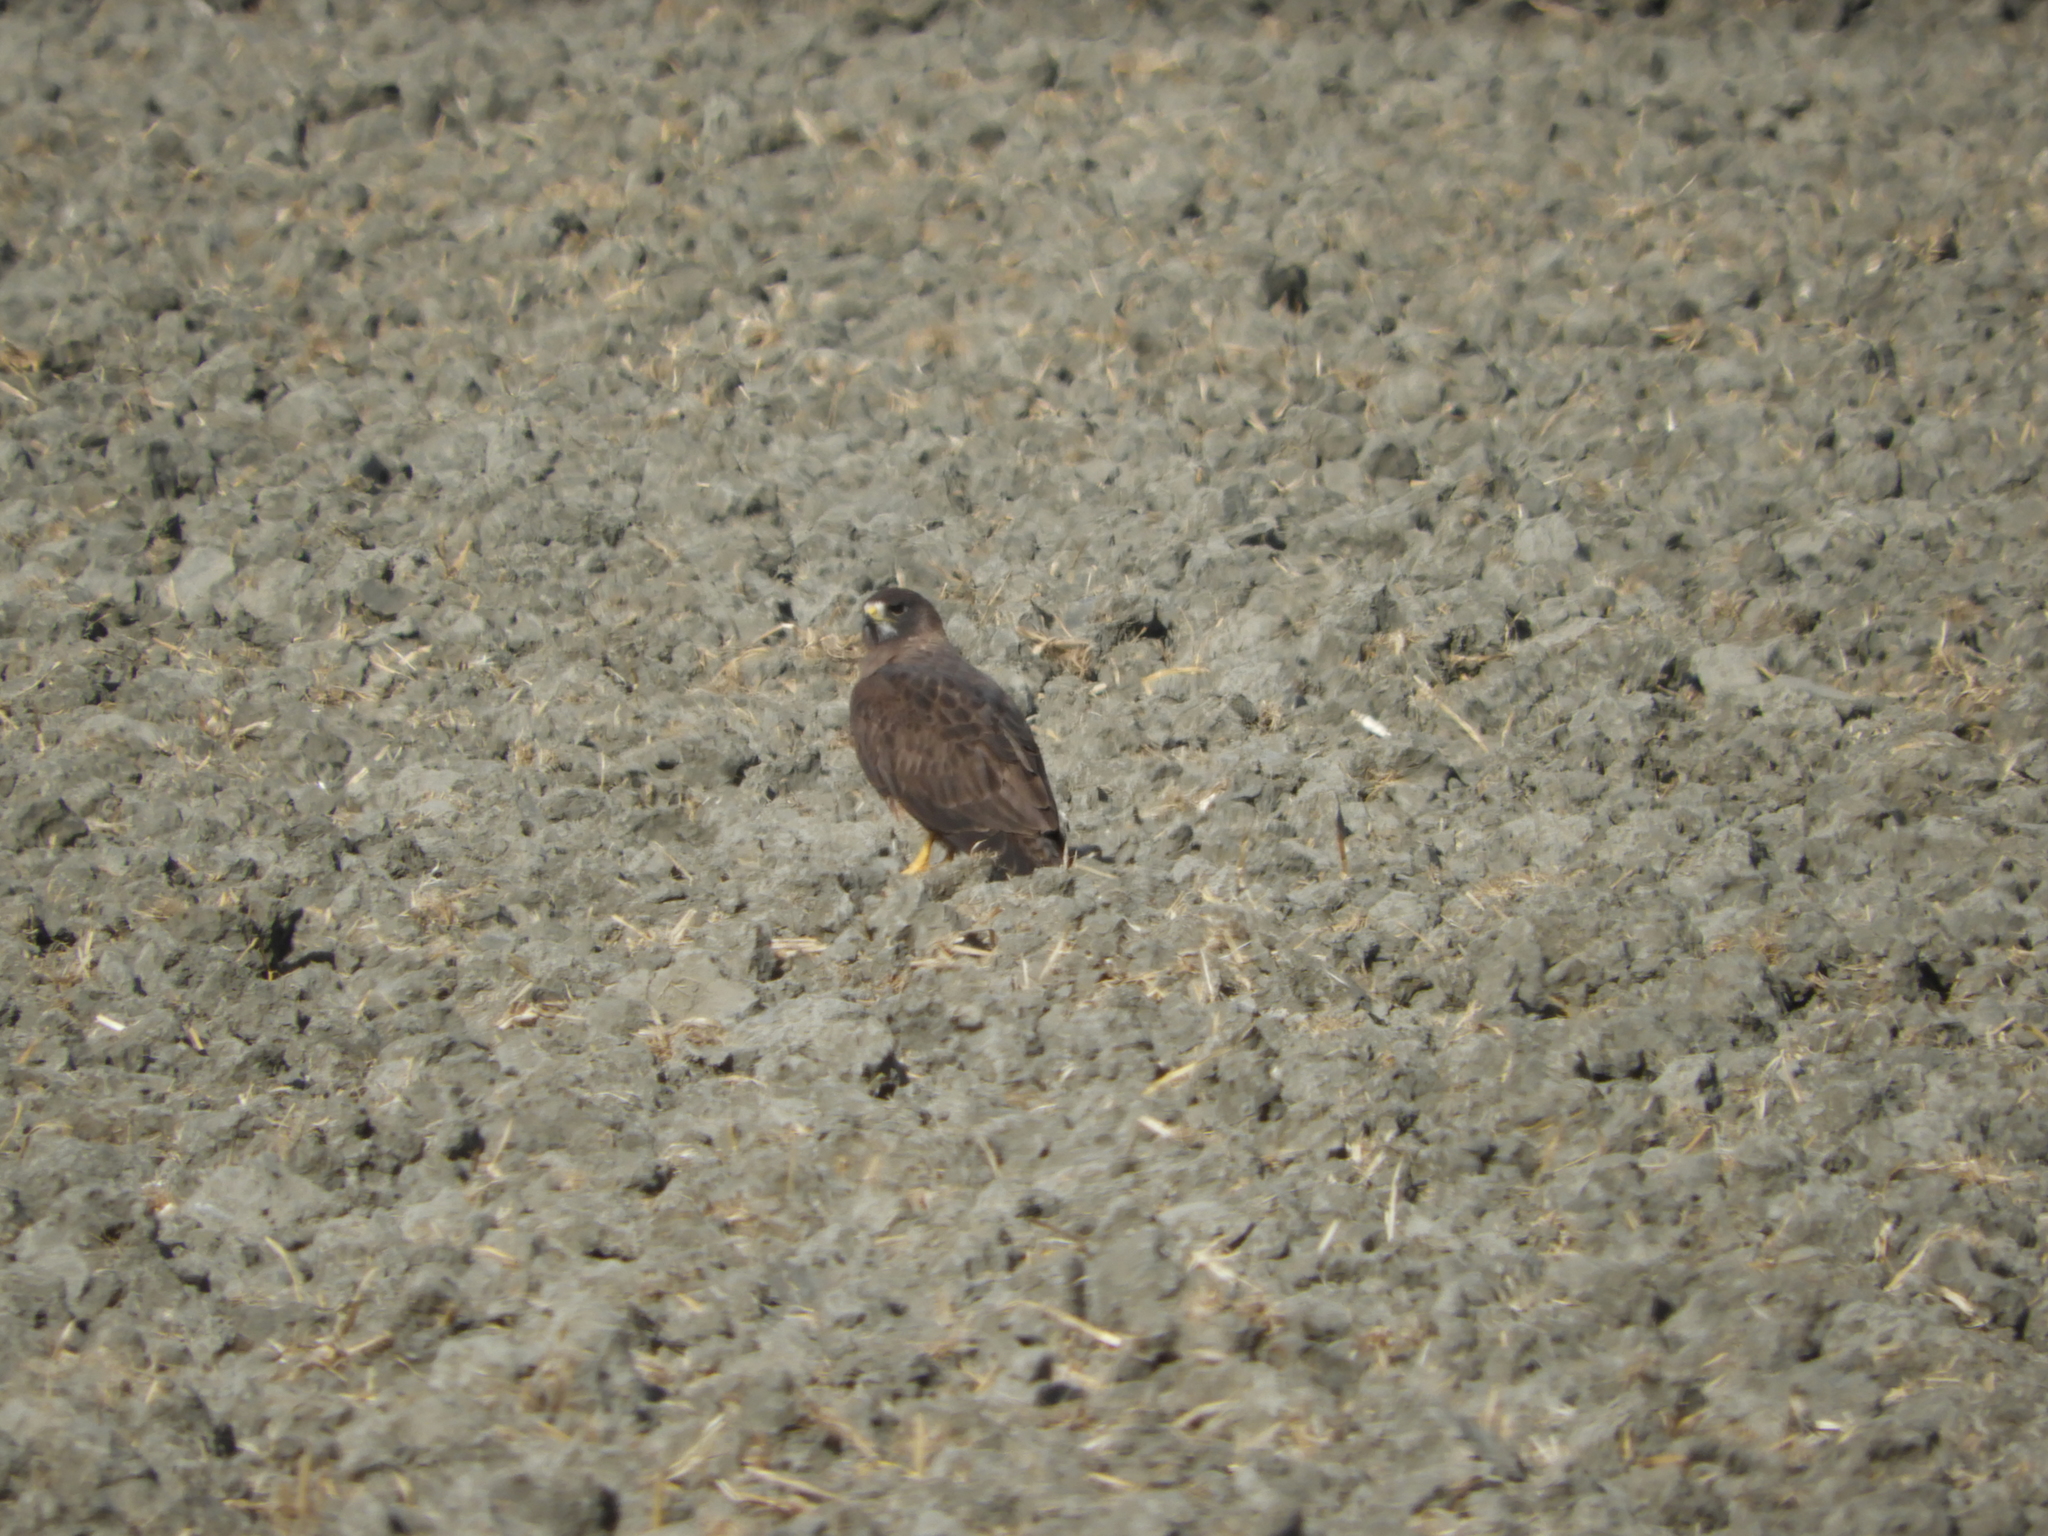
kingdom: Animalia
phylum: Chordata
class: Aves
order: Accipitriformes
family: Accipitridae
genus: Buteo
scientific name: Buteo swainsoni
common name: Swainson's hawk
